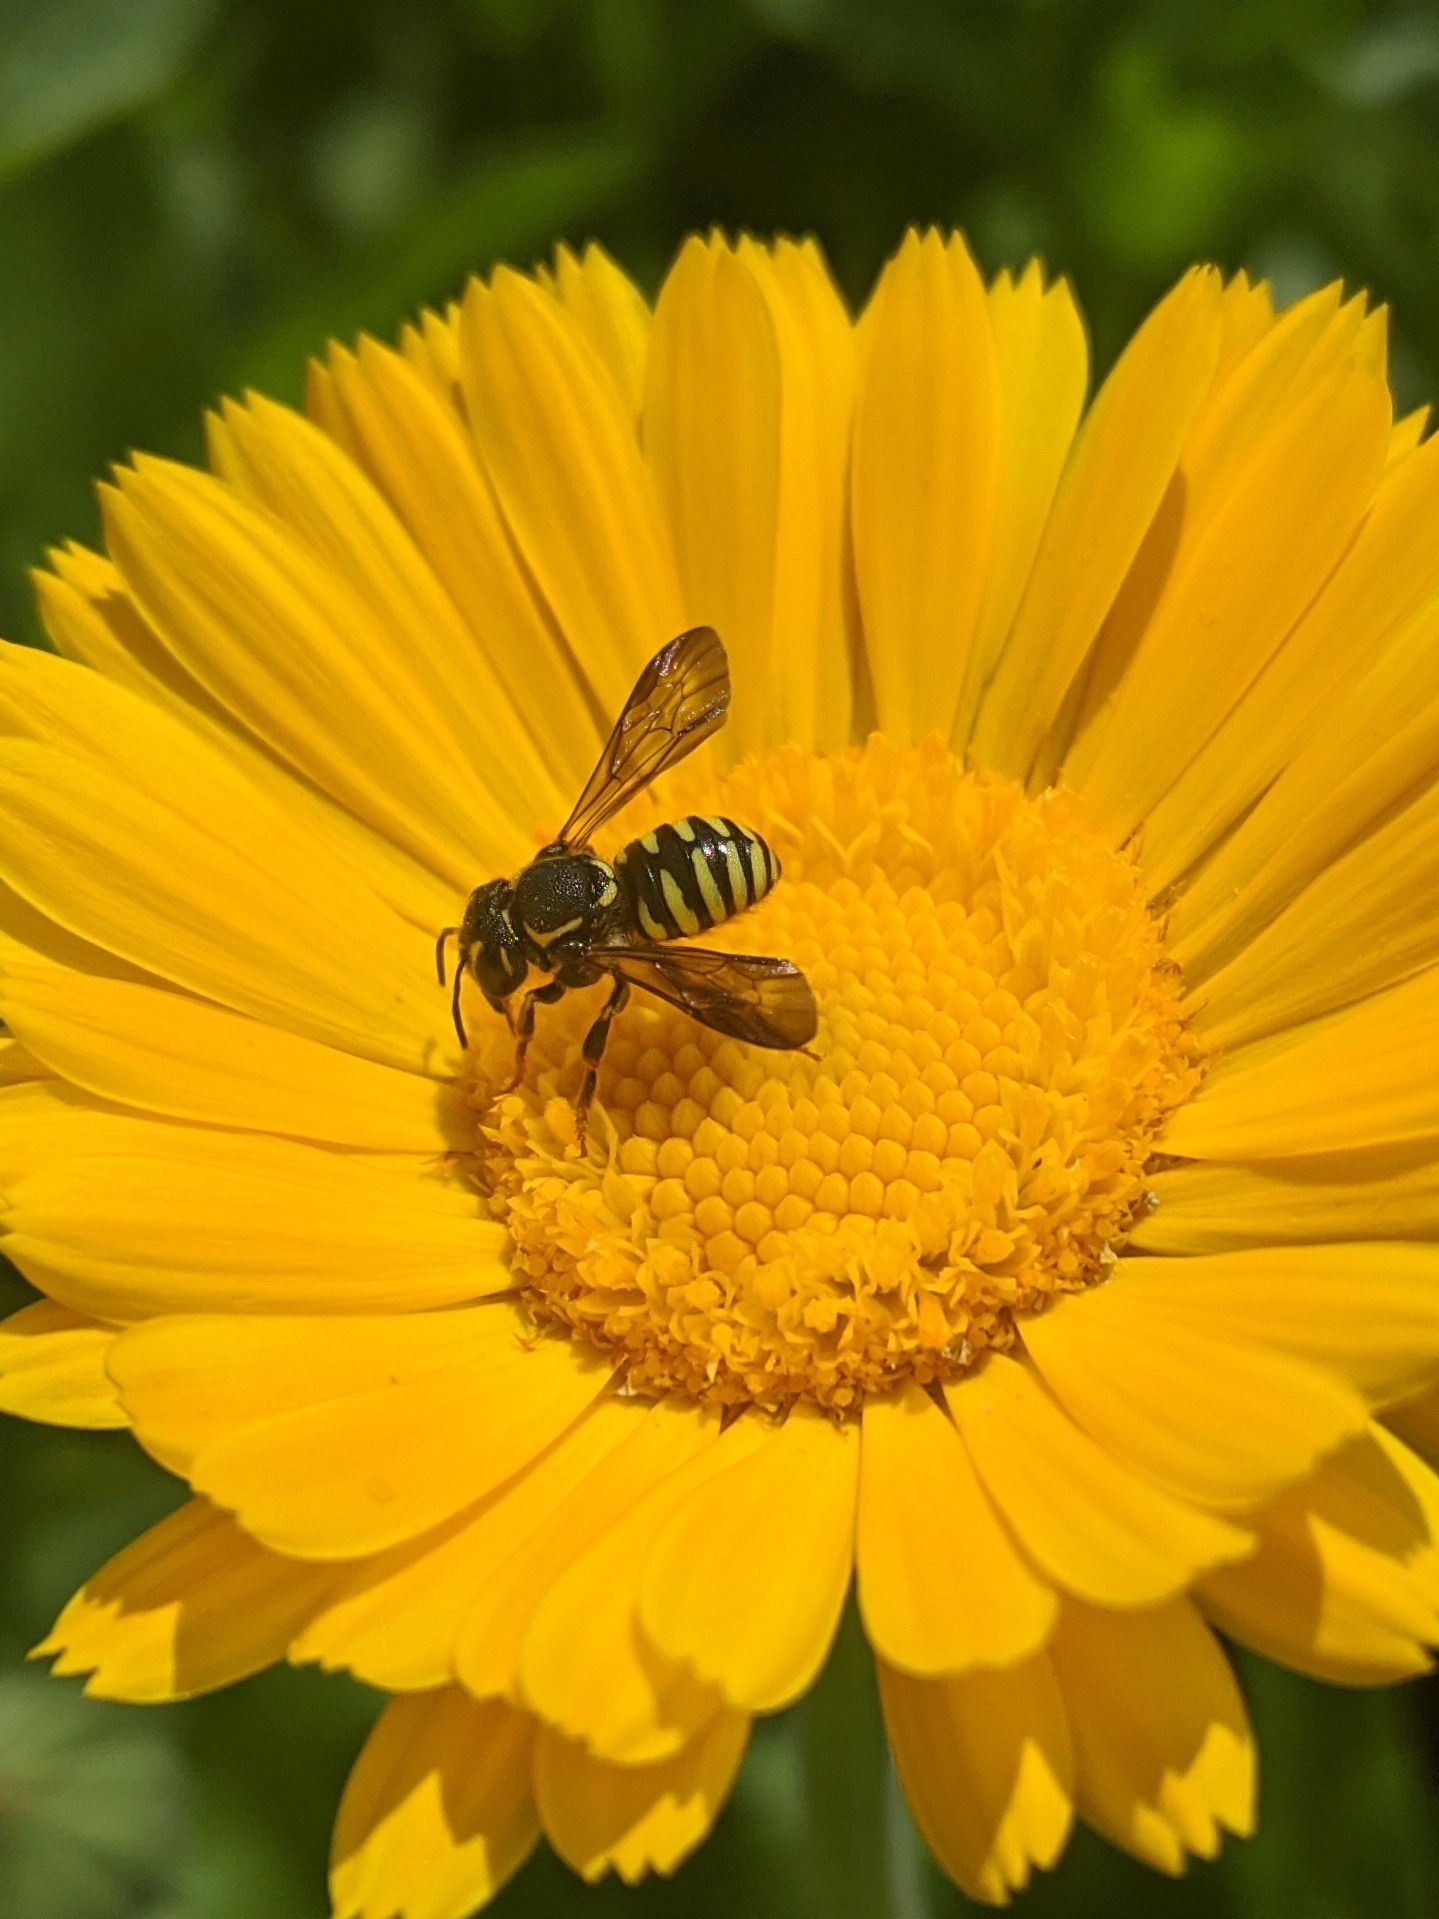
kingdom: Animalia
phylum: Arthropoda
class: Insecta
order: Hymenoptera
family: Megachilidae
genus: Paranthidium
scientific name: Paranthidium jugatorium
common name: Sunflower burrowing-resin bee
